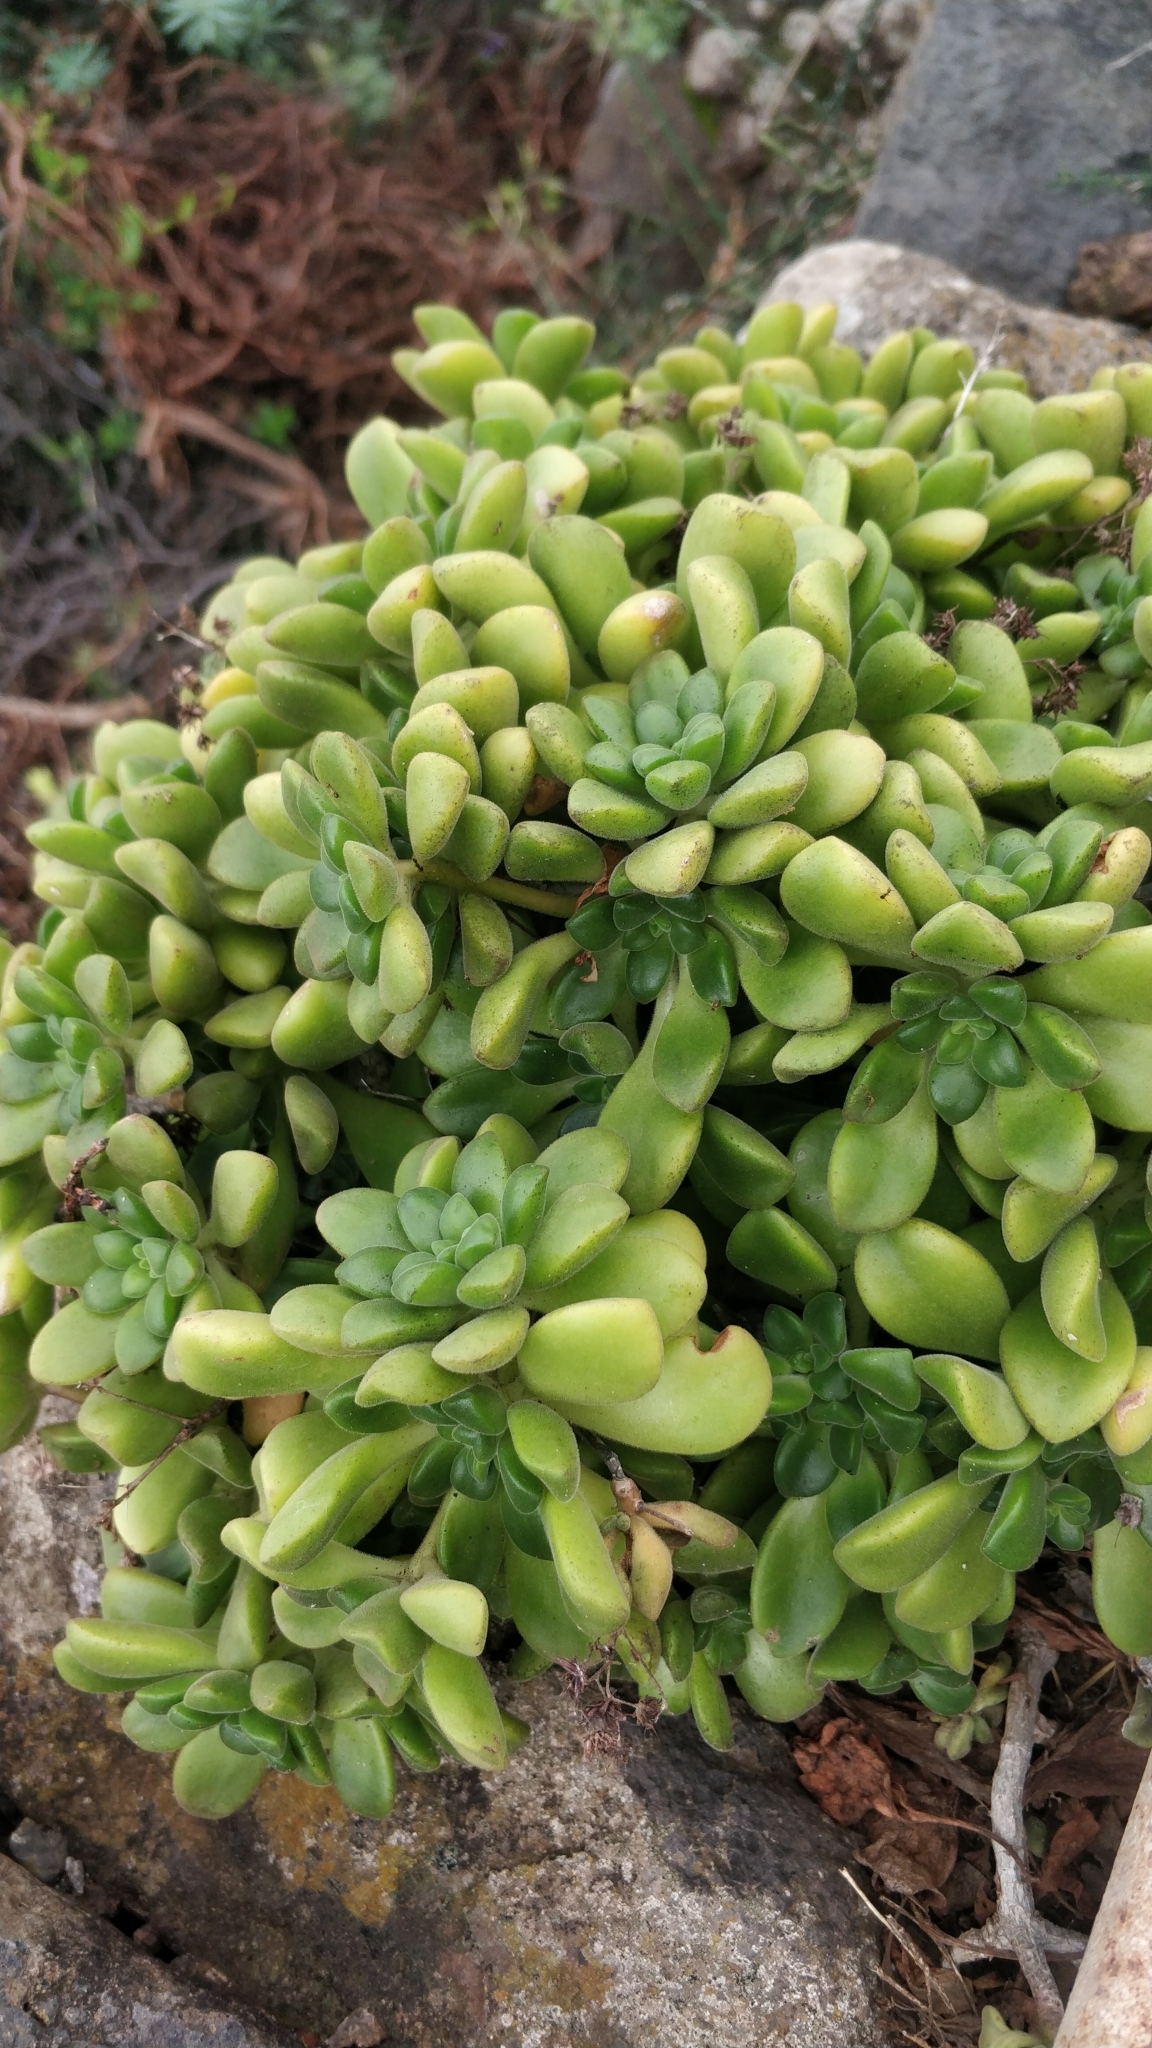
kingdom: Plantae
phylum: Tracheophyta
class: Magnoliopsida
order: Saxifragales
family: Crassulaceae
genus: Aeonium
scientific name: Aeonium lindleyi
